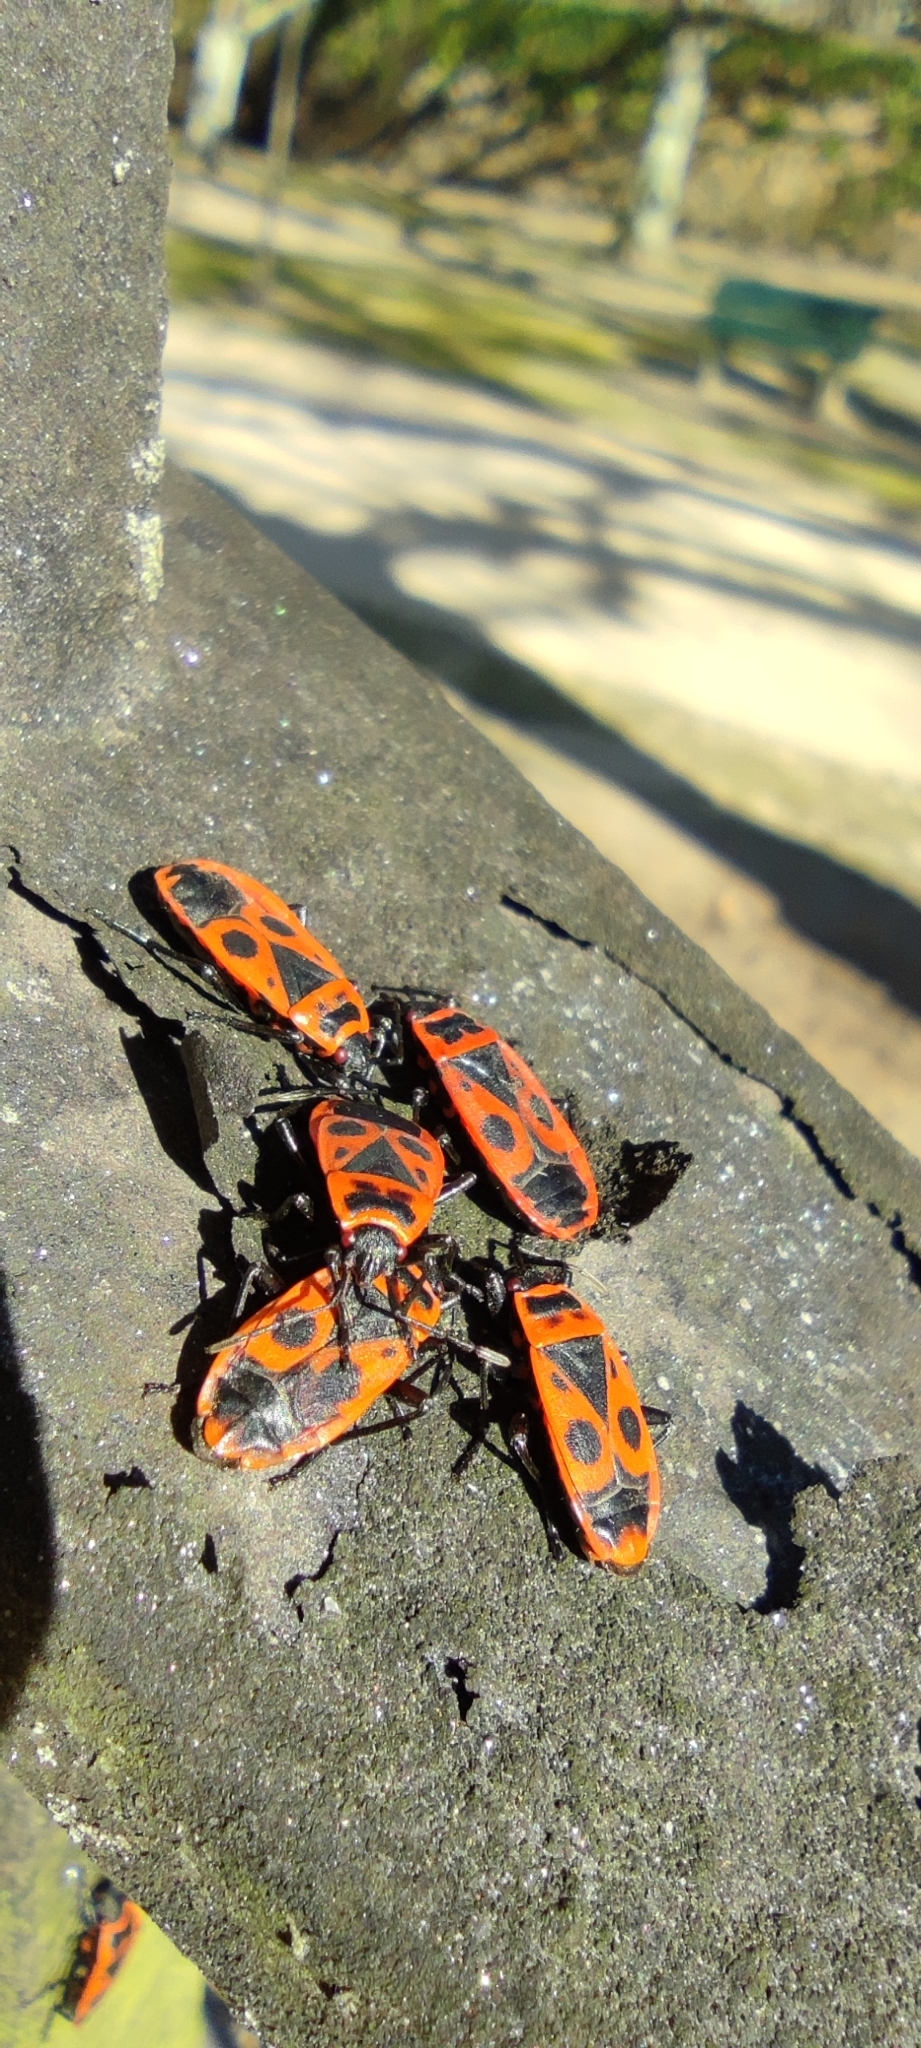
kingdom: Animalia
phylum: Arthropoda
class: Insecta
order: Hemiptera
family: Pyrrhocoridae
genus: Pyrrhocoris
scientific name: Pyrrhocoris apterus
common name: Firebug
